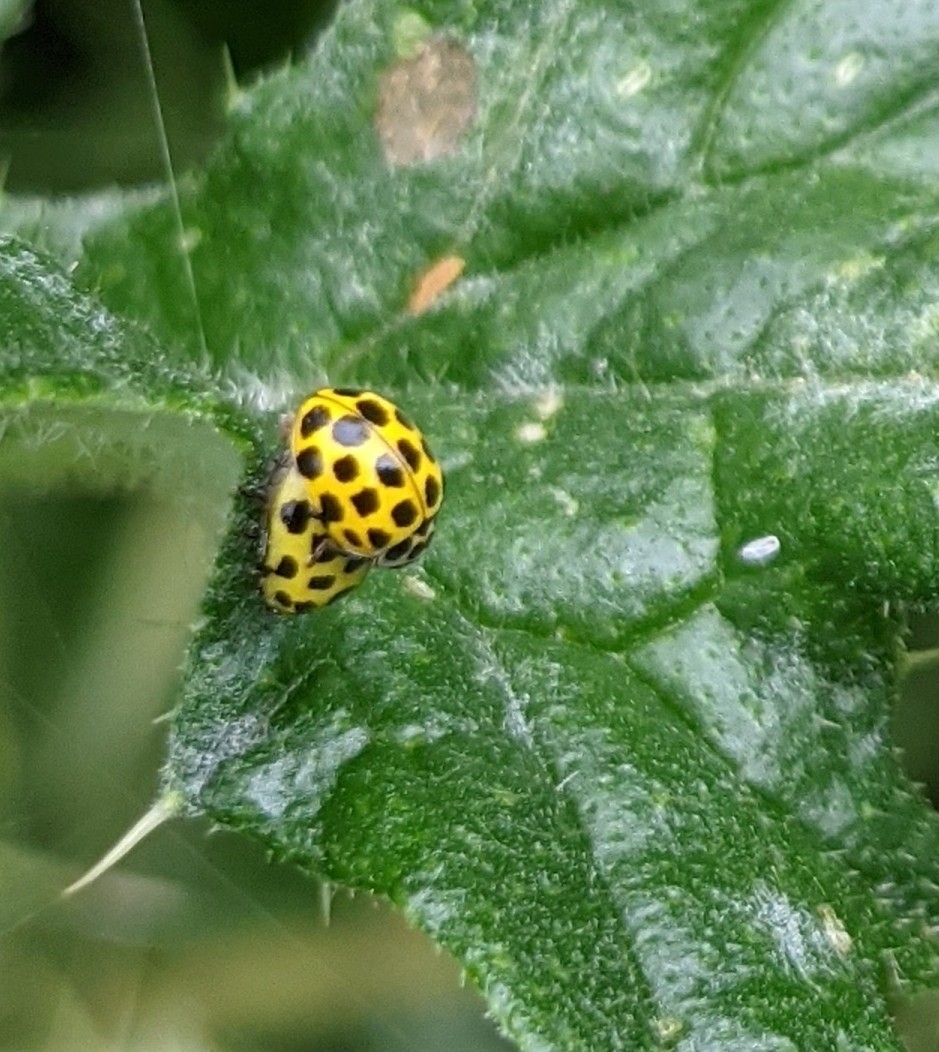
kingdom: Animalia
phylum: Arthropoda
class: Insecta
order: Coleoptera
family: Coccinellidae
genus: Psyllobora
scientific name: Psyllobora vigintiduopunctata
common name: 22-spot ladybird
